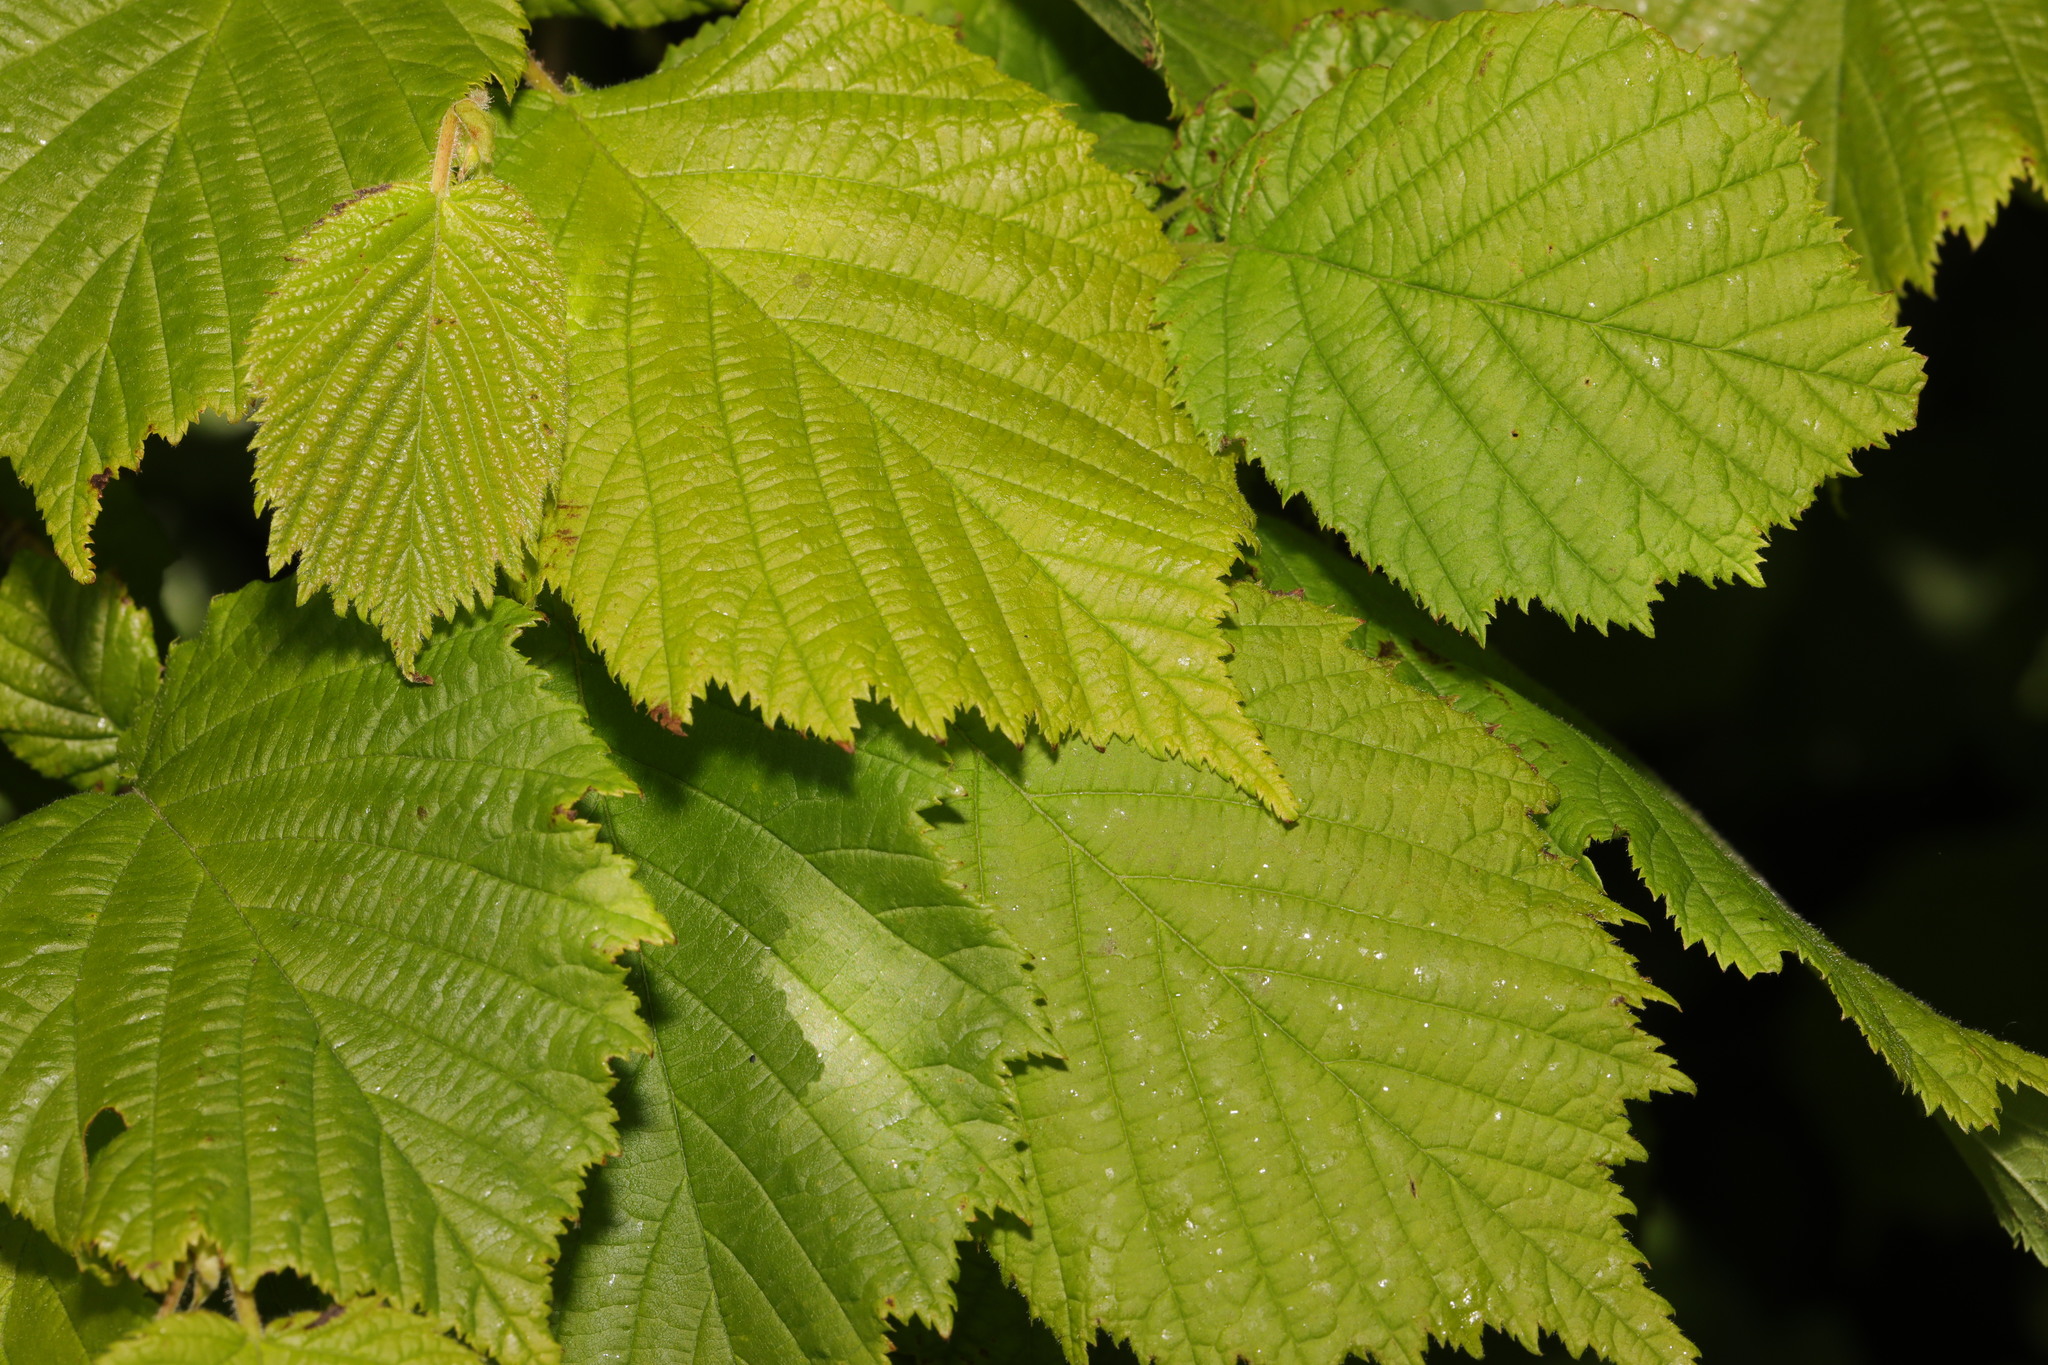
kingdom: Plantae
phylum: Tracheophyta
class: Magnoliopsida
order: Fagales
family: Betulaceae
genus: Corylus
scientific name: Corylus avellana
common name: European hazel
